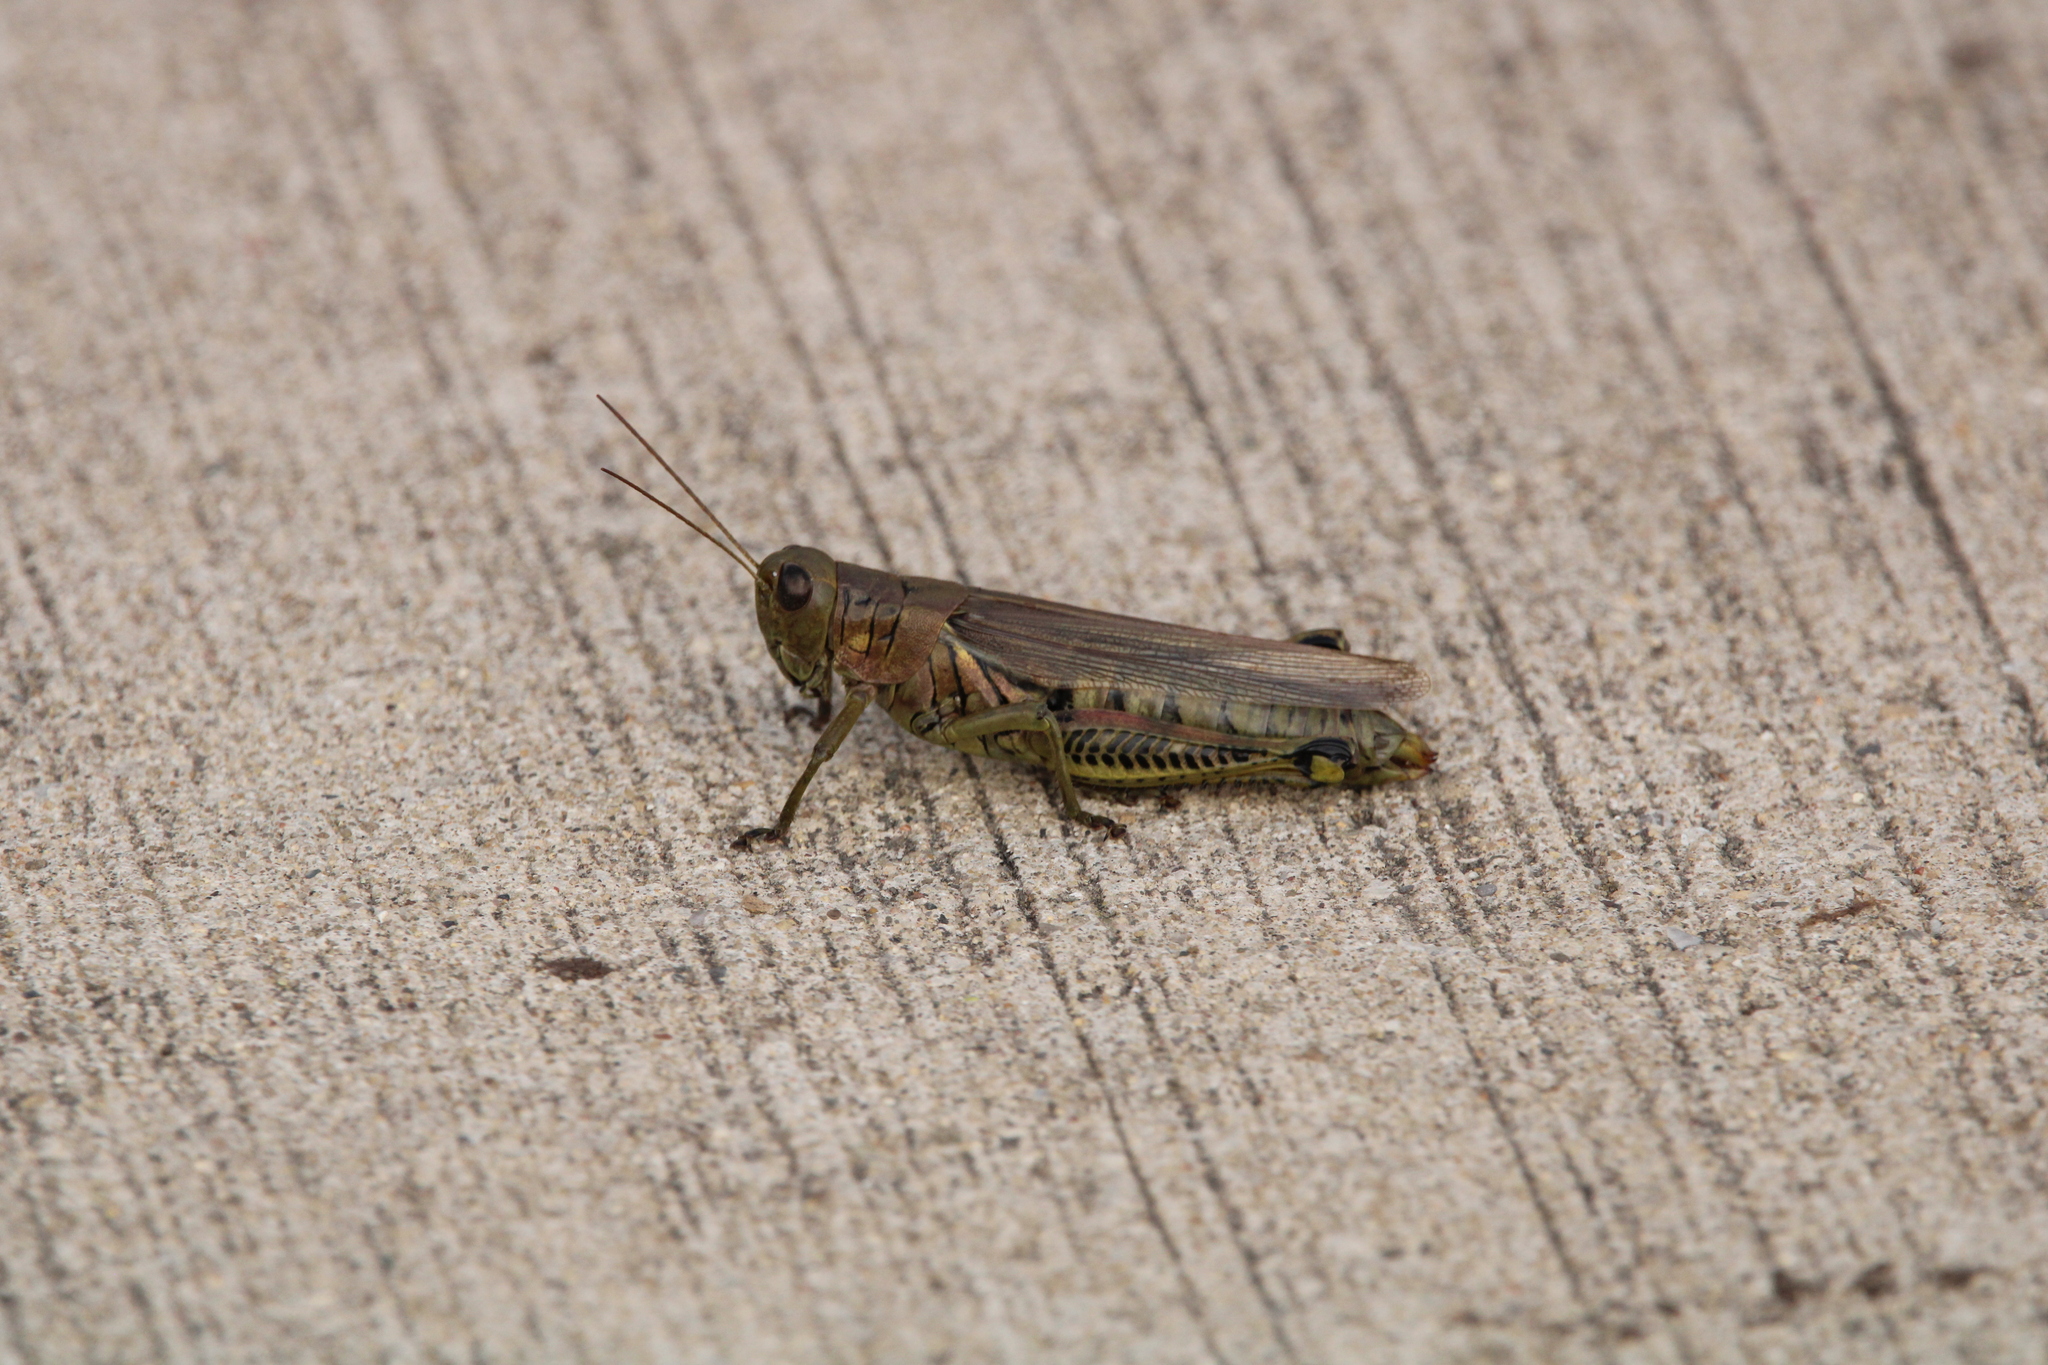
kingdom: Animalia
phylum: Arthropoda
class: Insecta
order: Orthoptera
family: Acrididae
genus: Melanoplus
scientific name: Melanoplus differentialis
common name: Differential grasshopper
